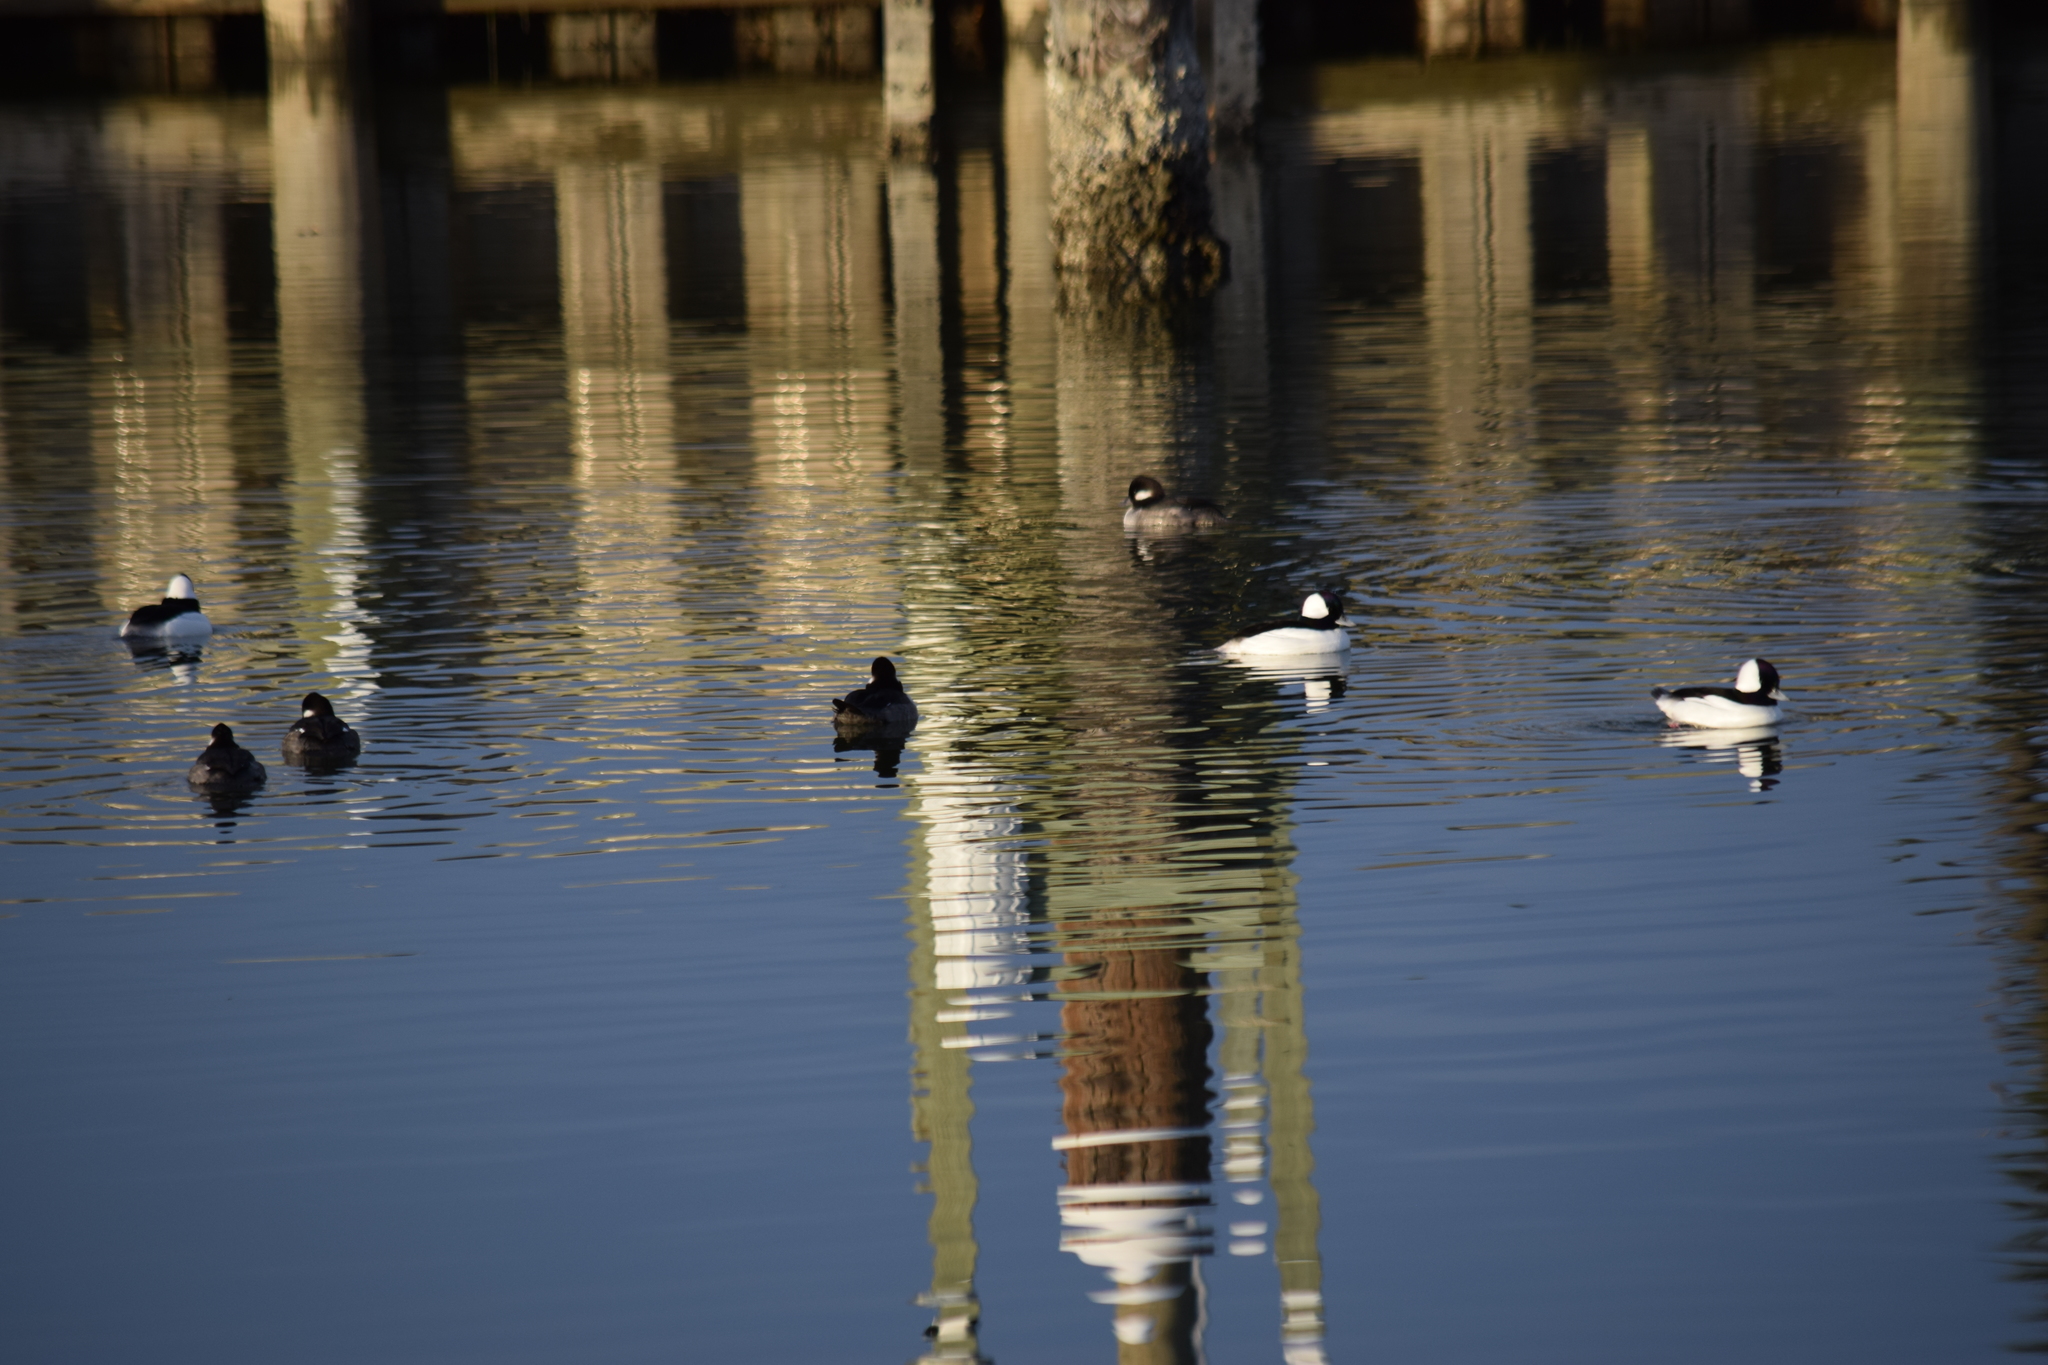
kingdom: Animalia
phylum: Chordata
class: Aves
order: Anseriformes
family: Anatidae
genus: Bucephala
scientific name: Bucephala albeola
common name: Bufflehead
